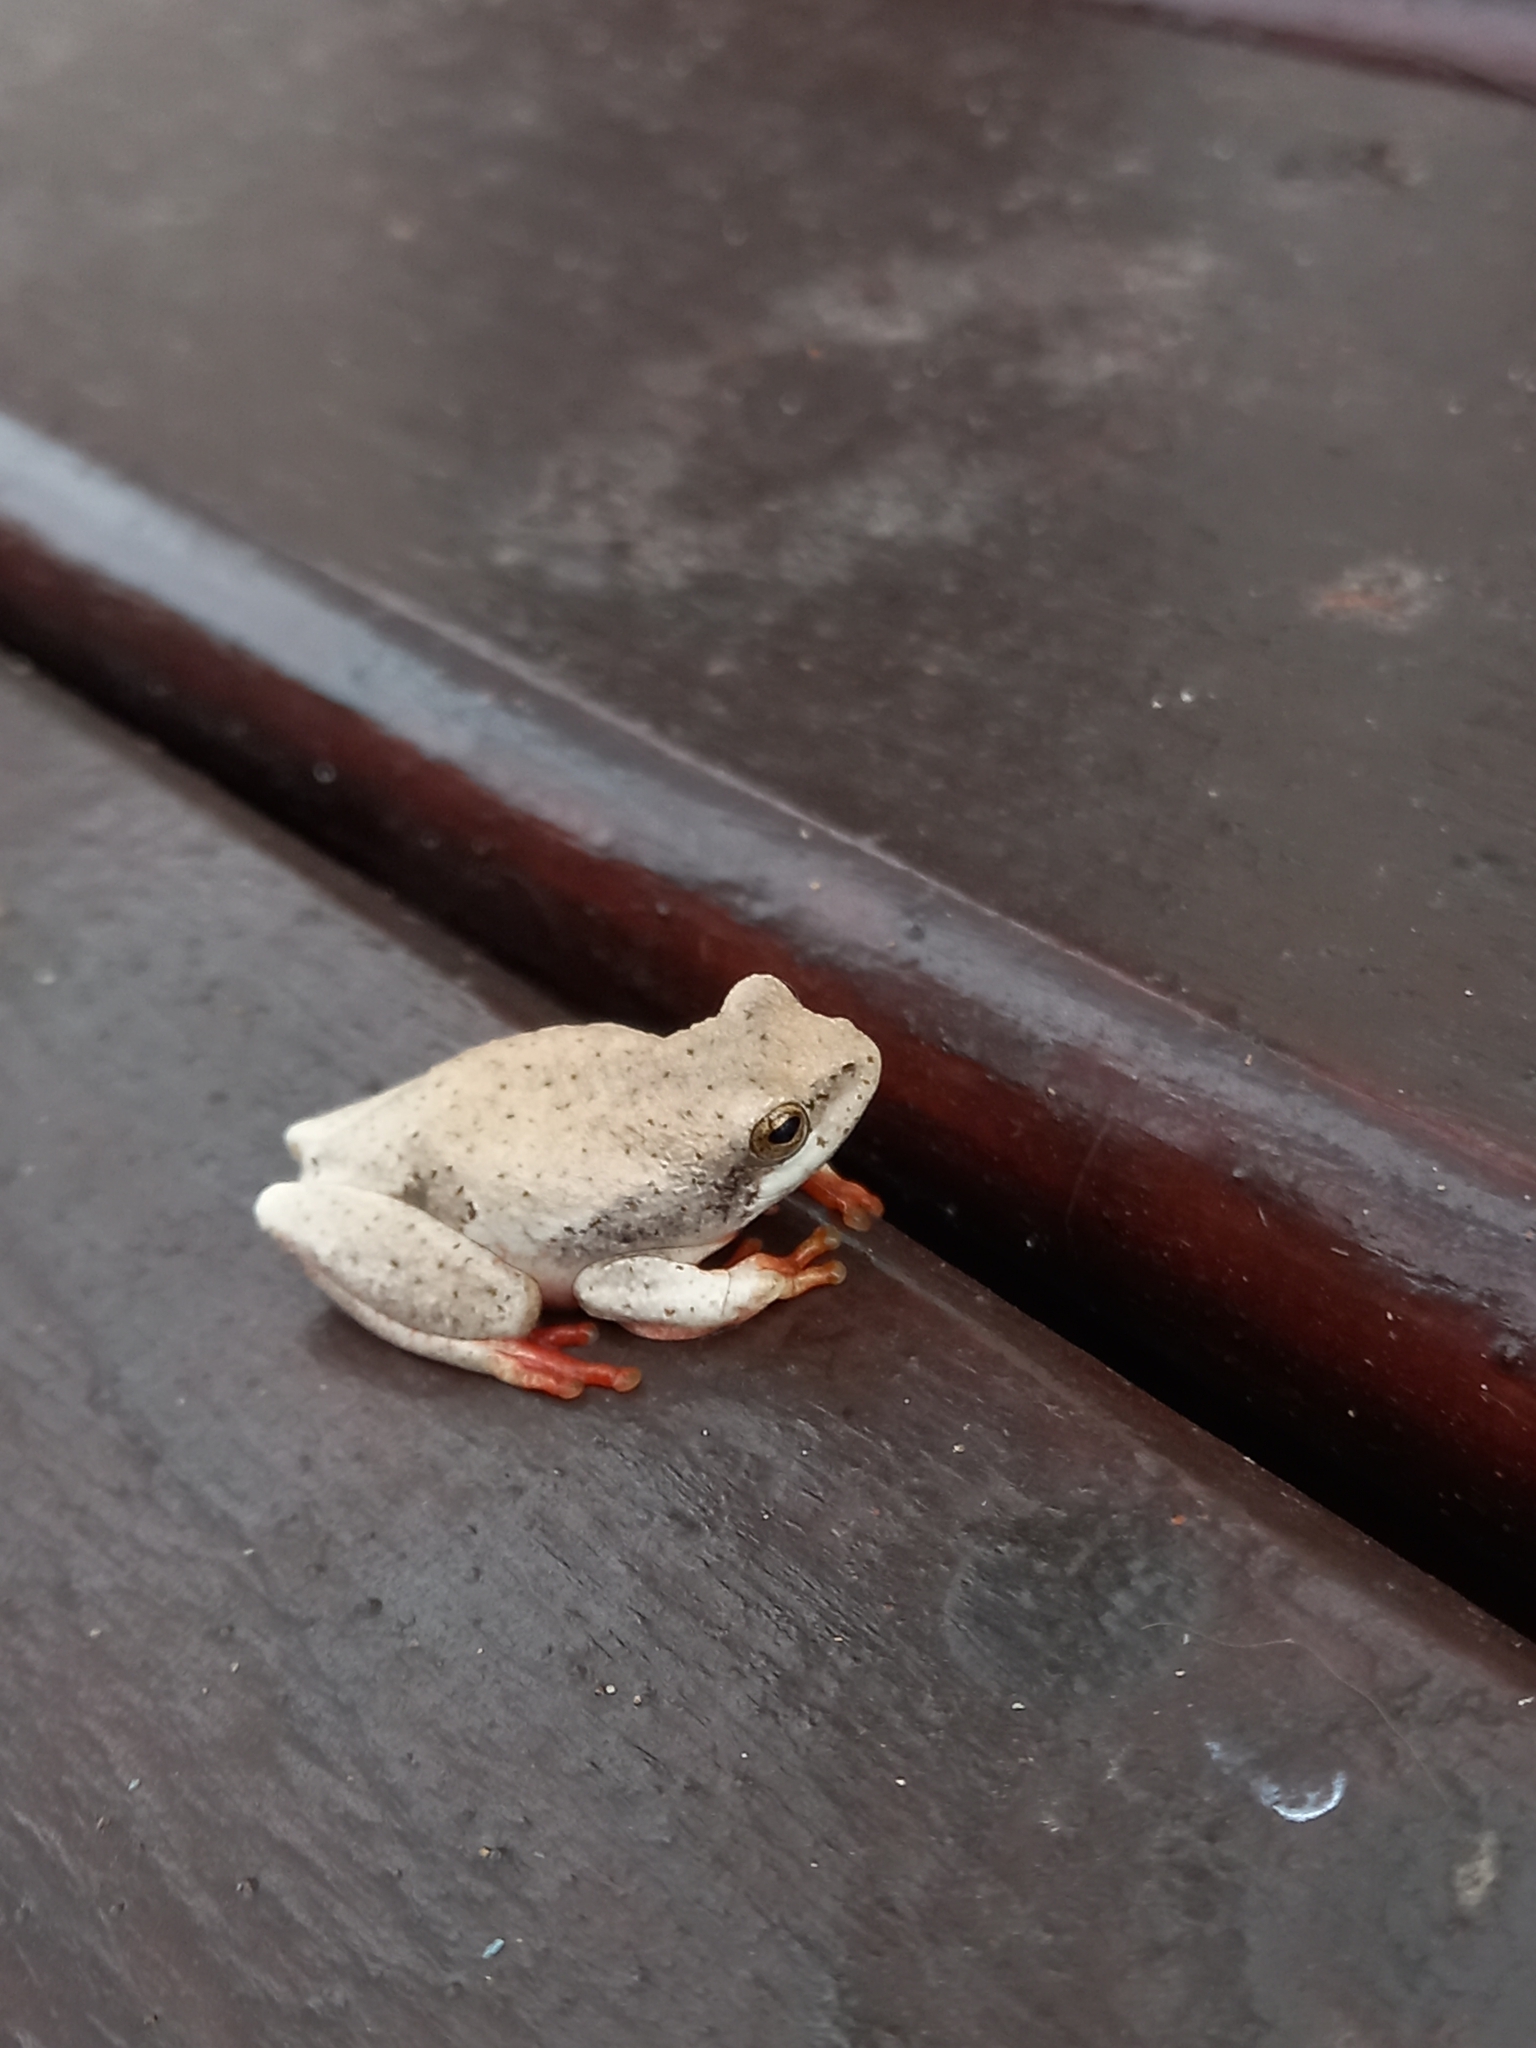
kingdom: Animalia
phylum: Chordata
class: Amphibia
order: Anura
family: Hyperoliidae
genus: Hyperolius
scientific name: Hyperolius marmoratus
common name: Painted reed frog
